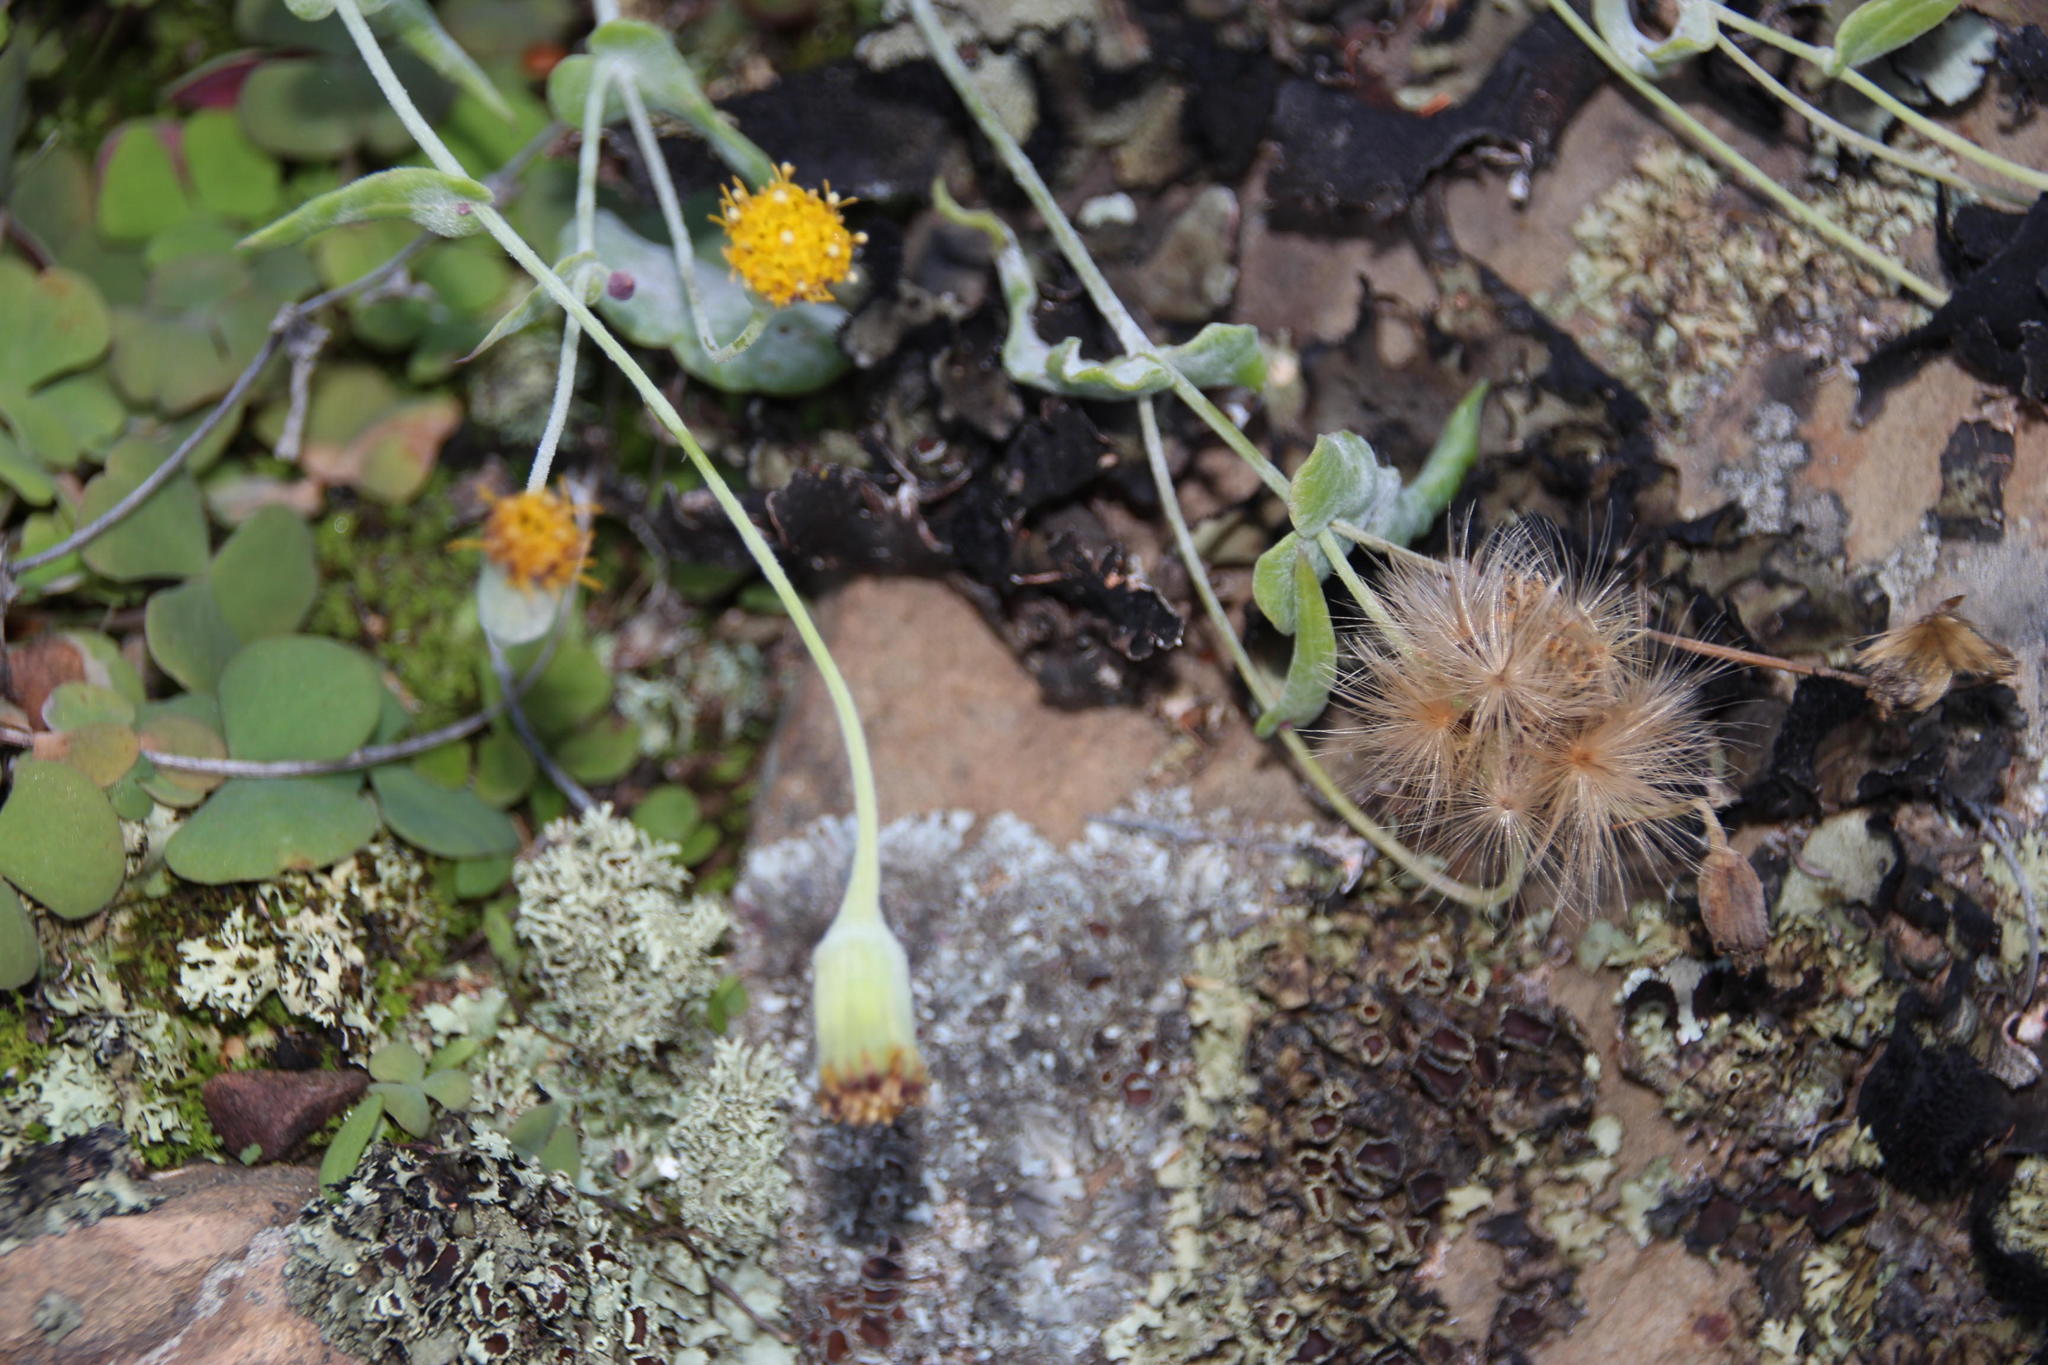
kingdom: Plantae
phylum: Tracheophyta
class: Magnoliopsida
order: Asterales
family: Asteraceae
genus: Othonna
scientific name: Othonna undulosa
